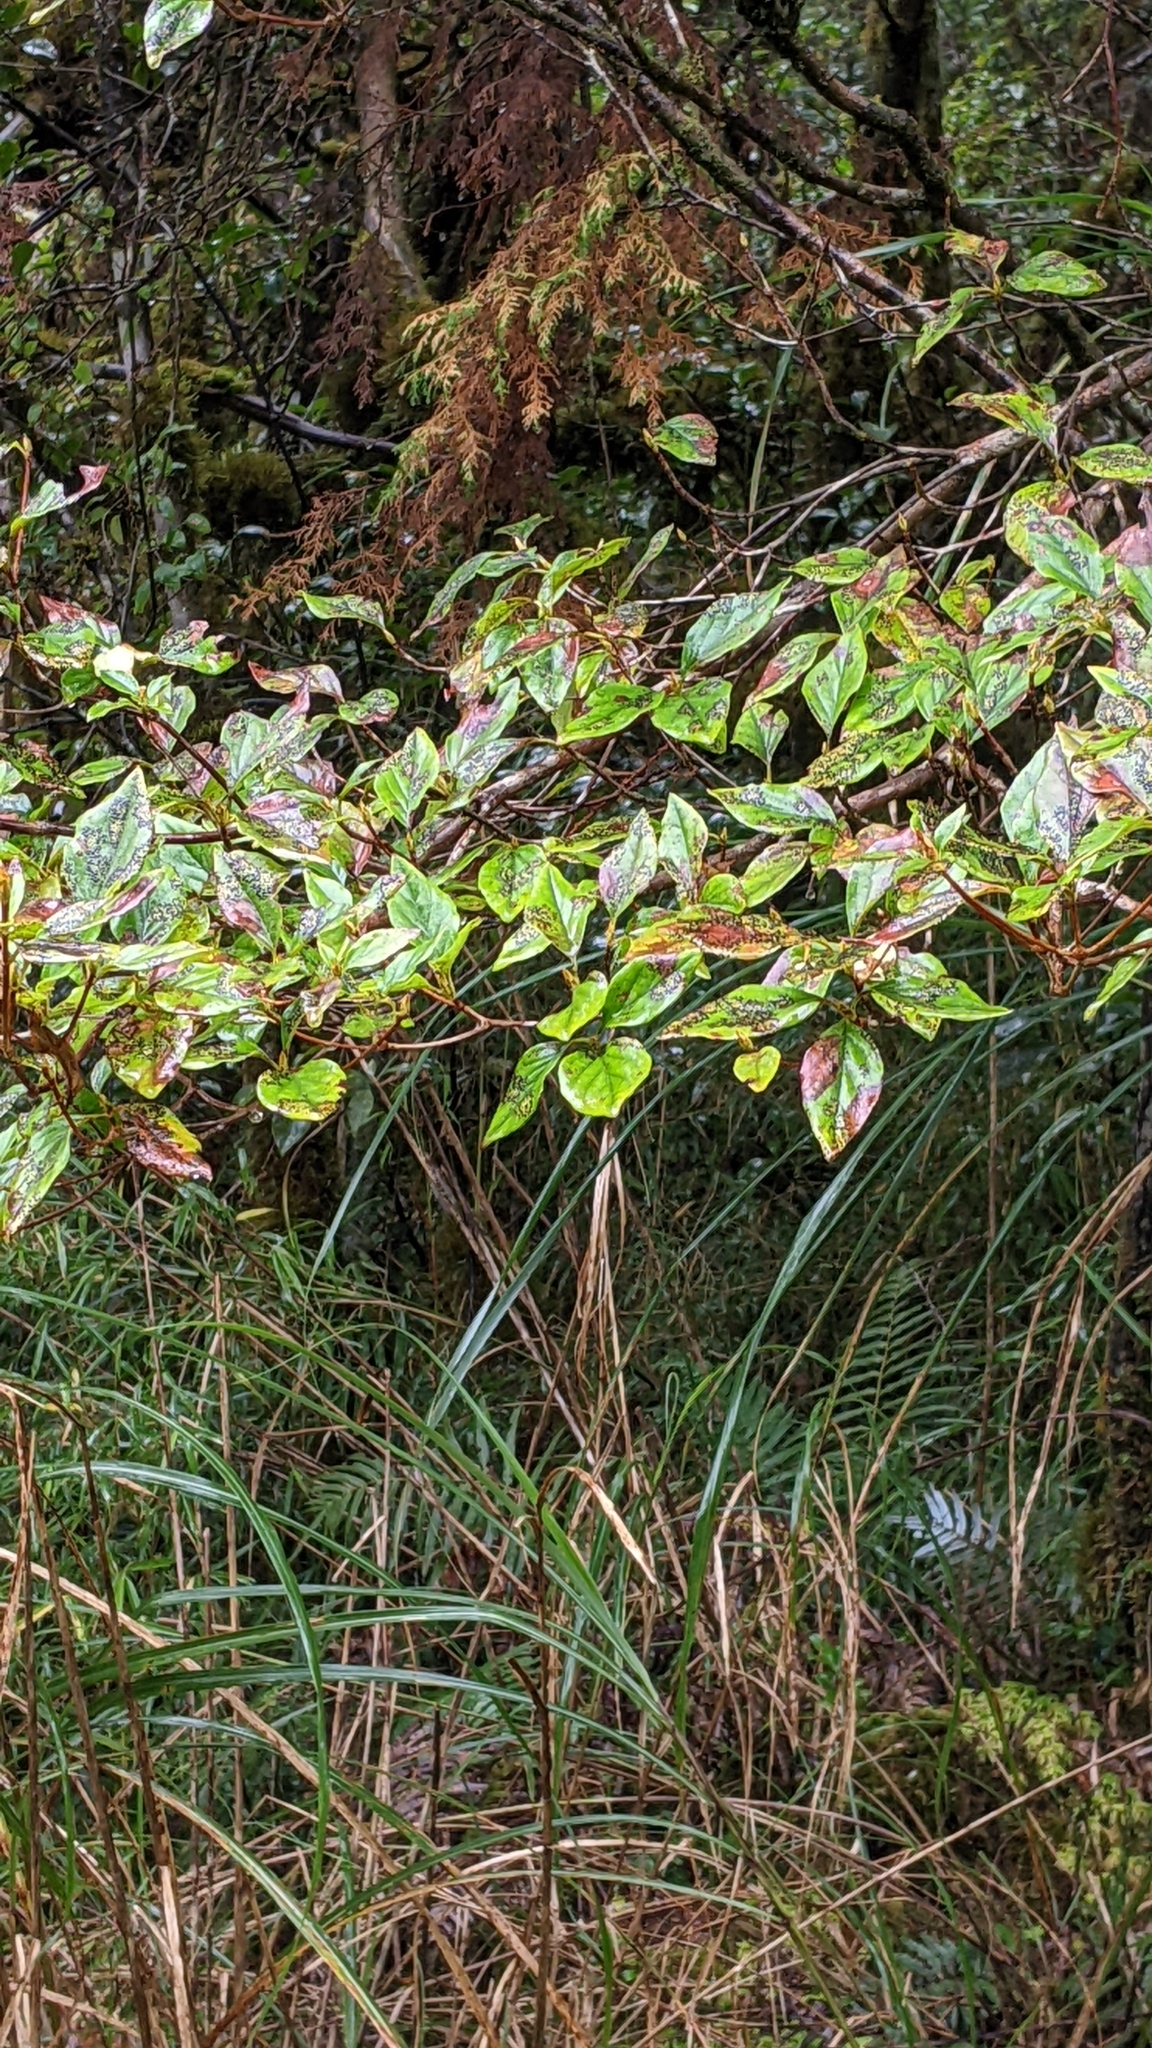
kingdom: Plantae
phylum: Tracheophyta
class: Magnoliopsida
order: Ericales
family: Ericaceae
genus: Rhododendron
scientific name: Rhododendron mariesii
